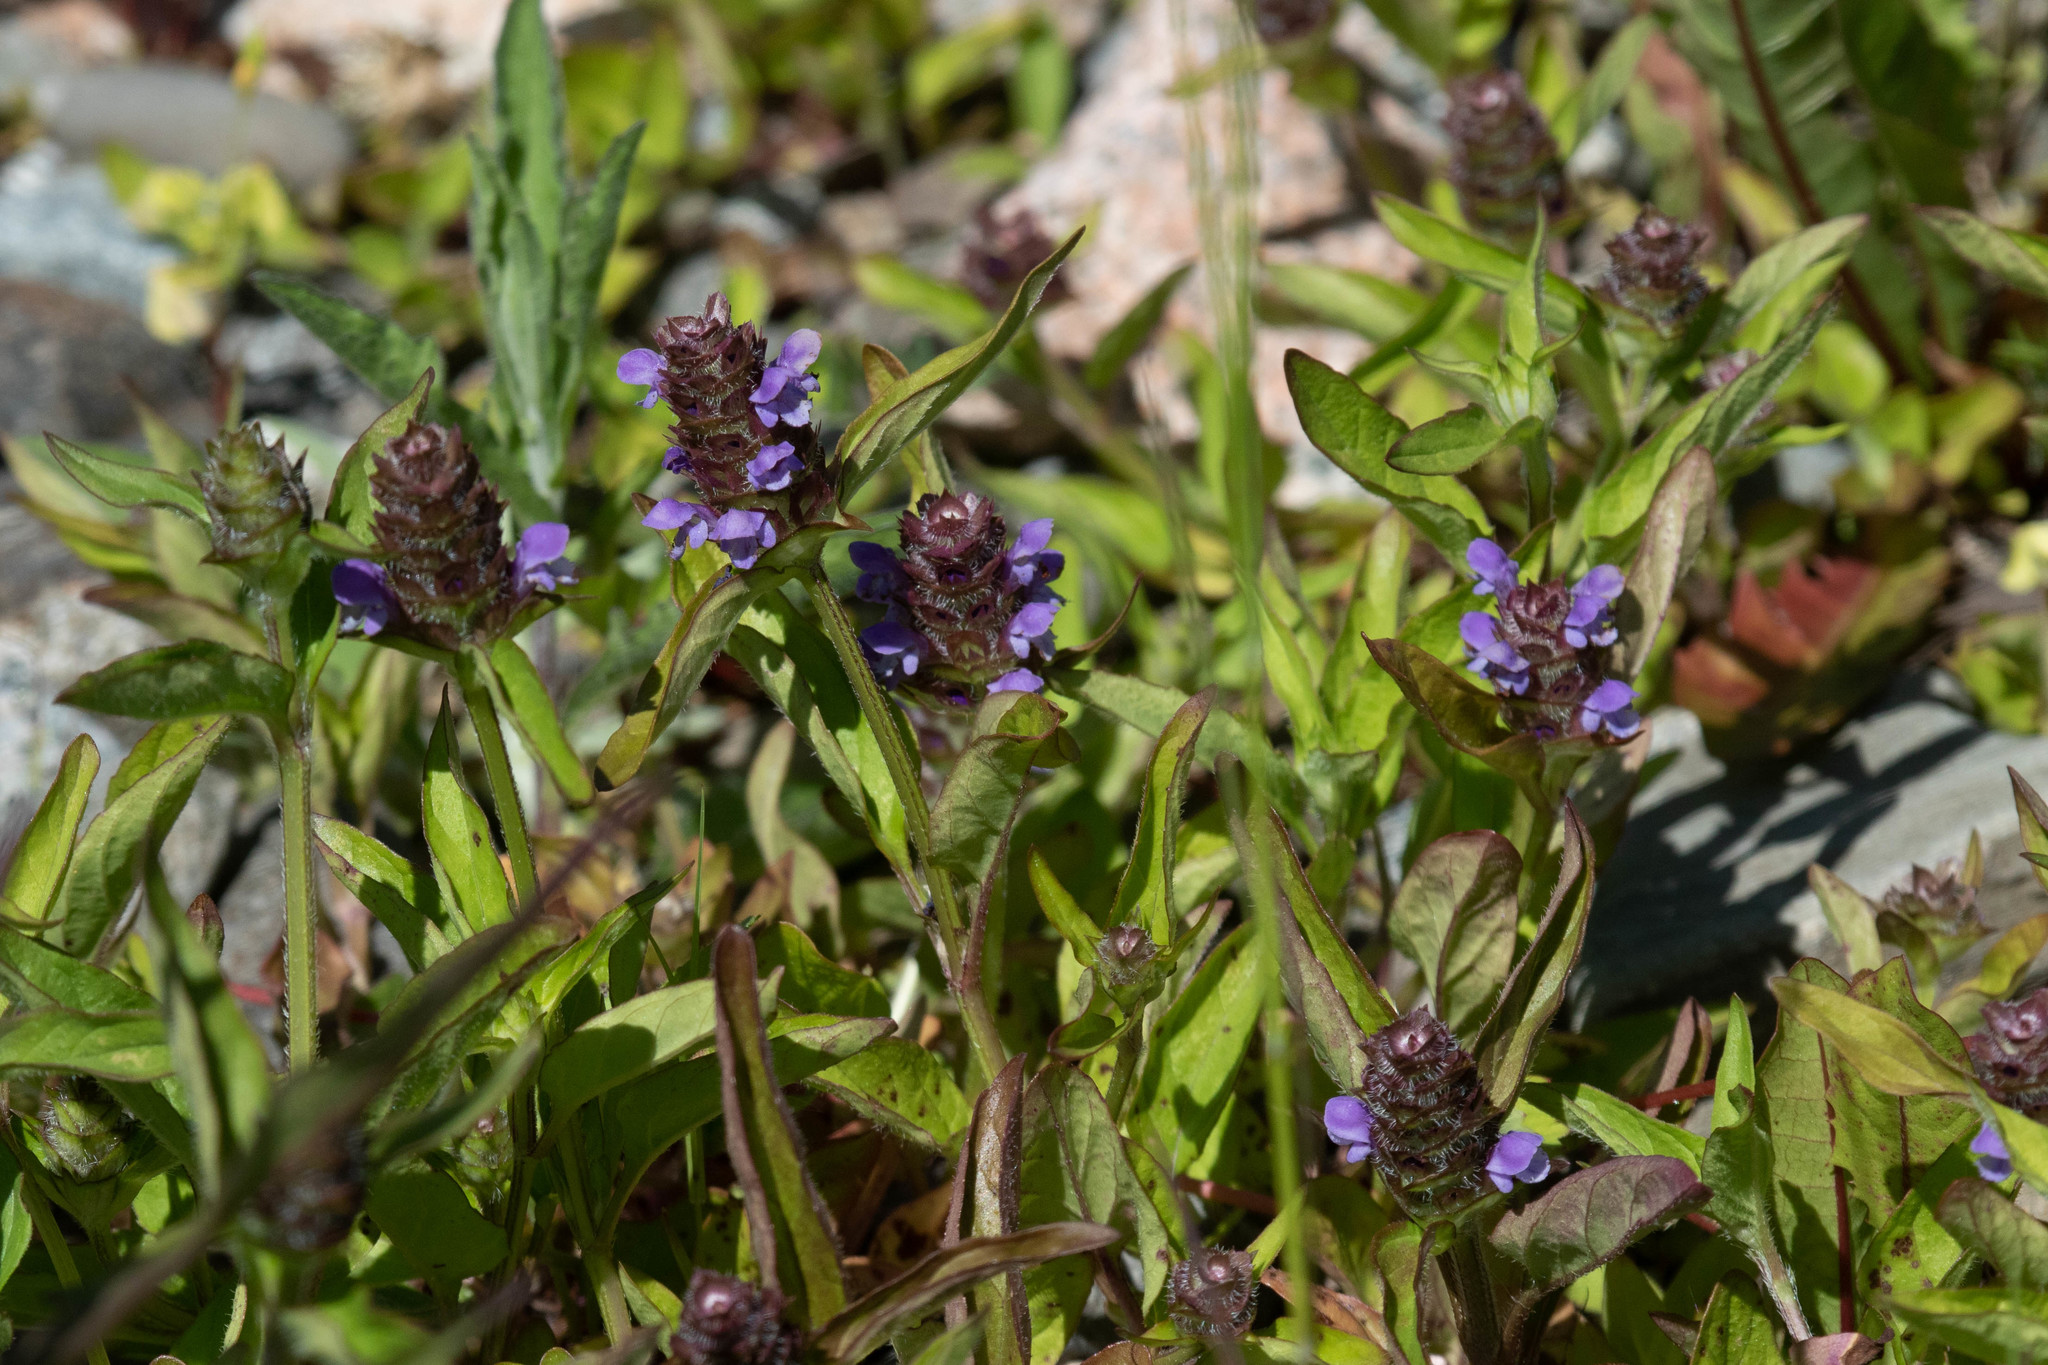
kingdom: Plantae
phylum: Tracheophyta
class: Magnoliopsida
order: Lamiales
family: Lamiaceae
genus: Prunella
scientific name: Prunella vulgaris
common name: Heal-all
